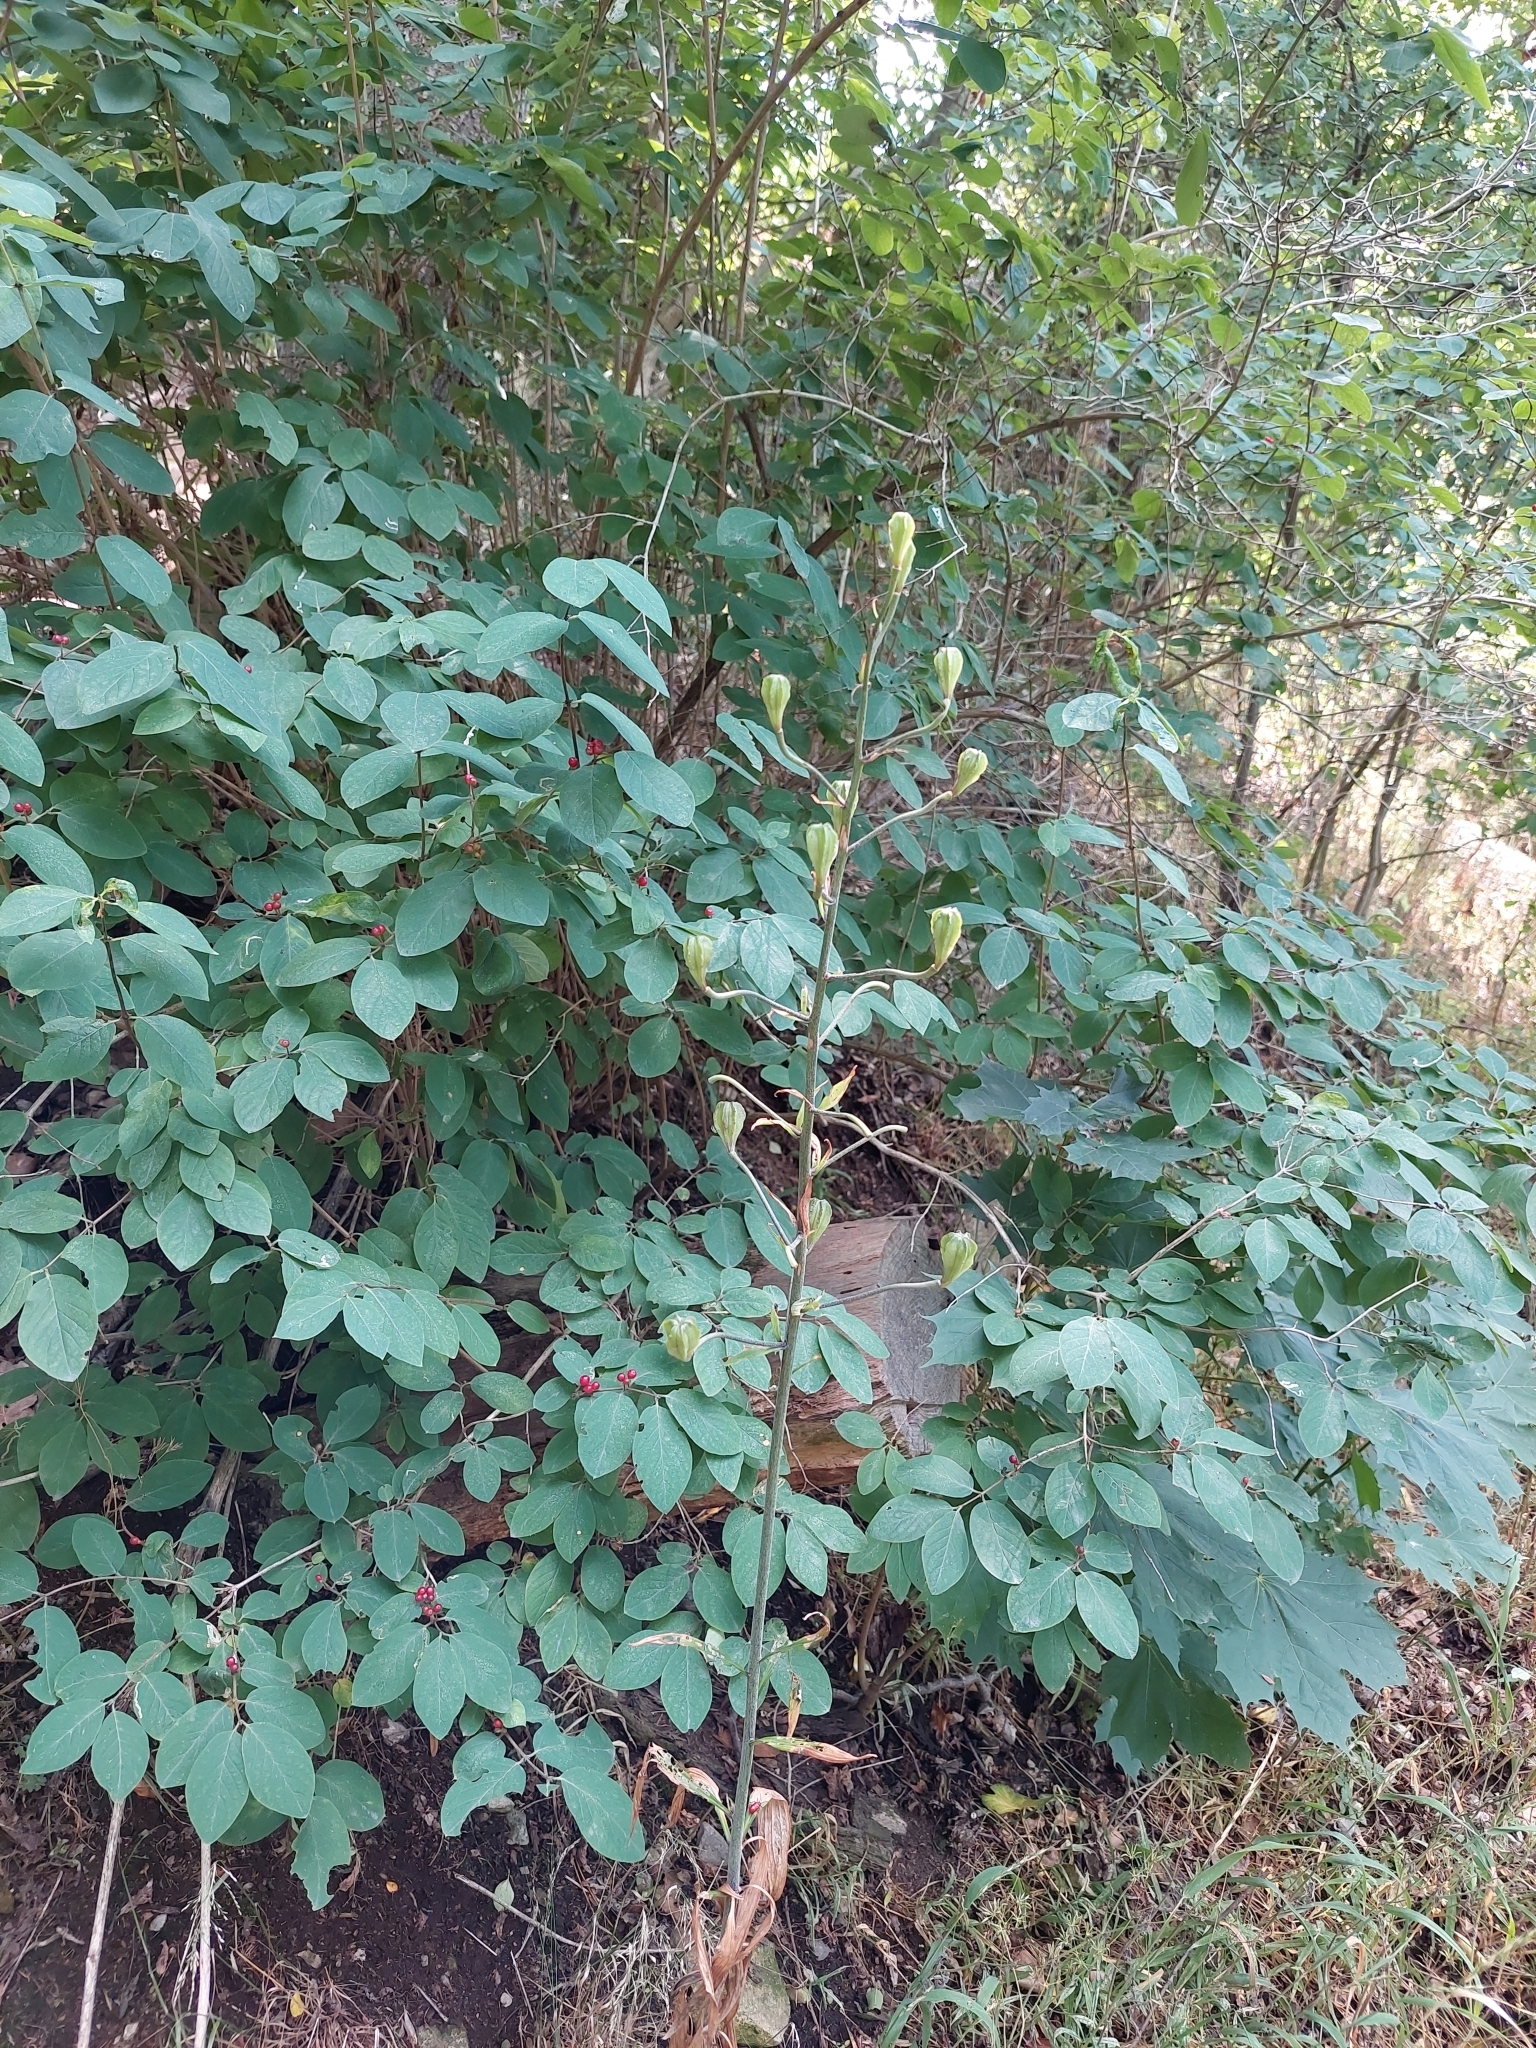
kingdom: Plantae
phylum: Tracheophyta
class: Liliopsida
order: Liliales
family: Liliaceae
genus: Lilium
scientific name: Lilium martagon
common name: Martagon lily
